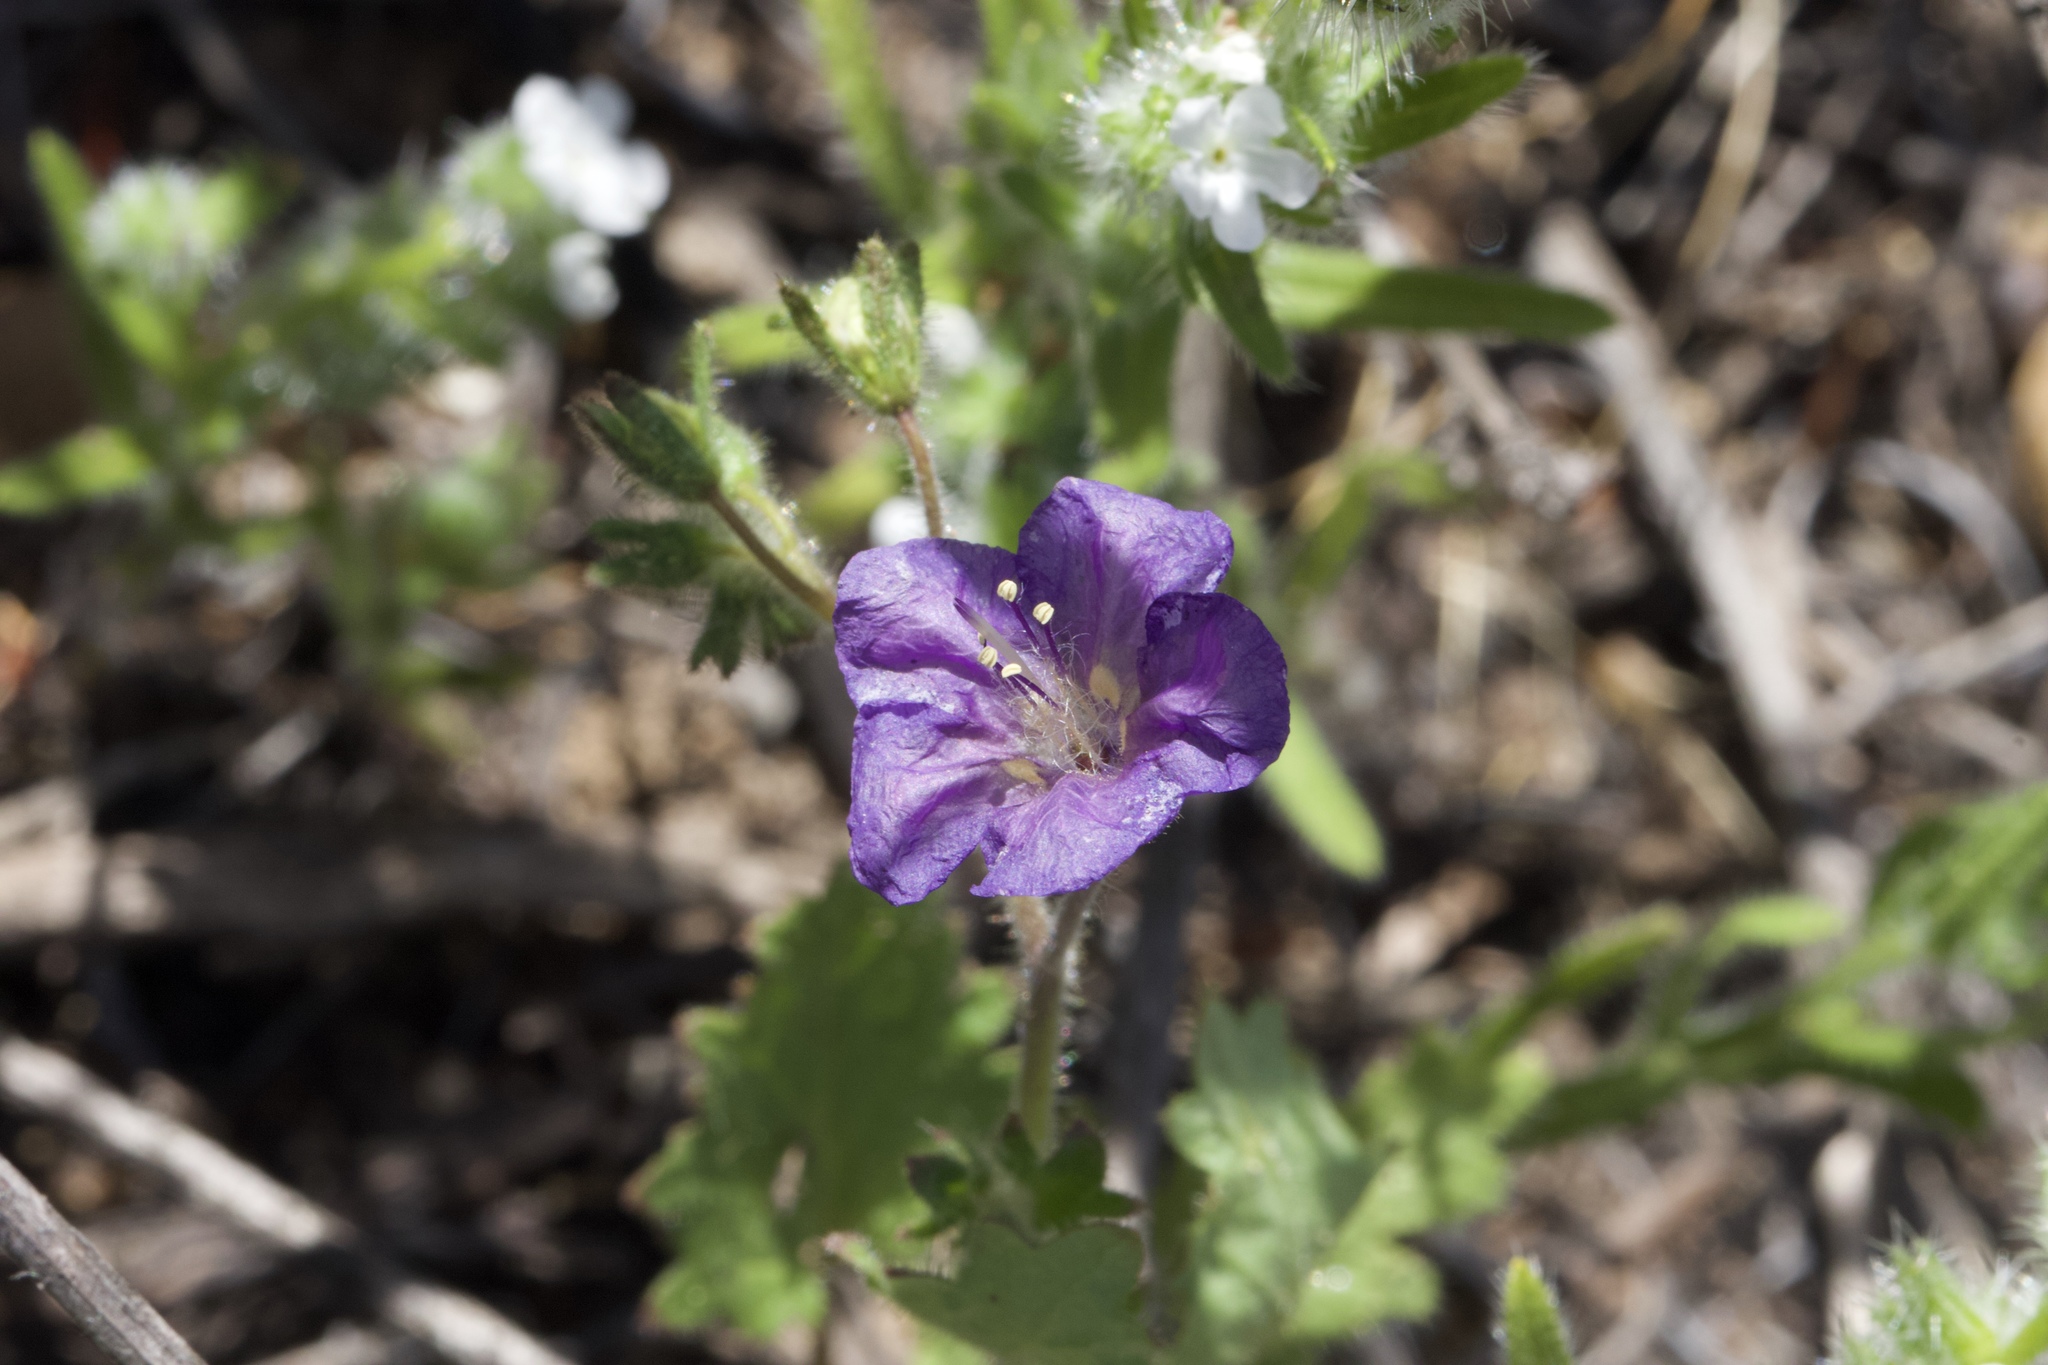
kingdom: Plantae
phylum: Tracheophyta
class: Magnoliopsida
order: Boraginales
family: Hydrophyllaceae
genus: Phacelia
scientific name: Phacelia parryi
